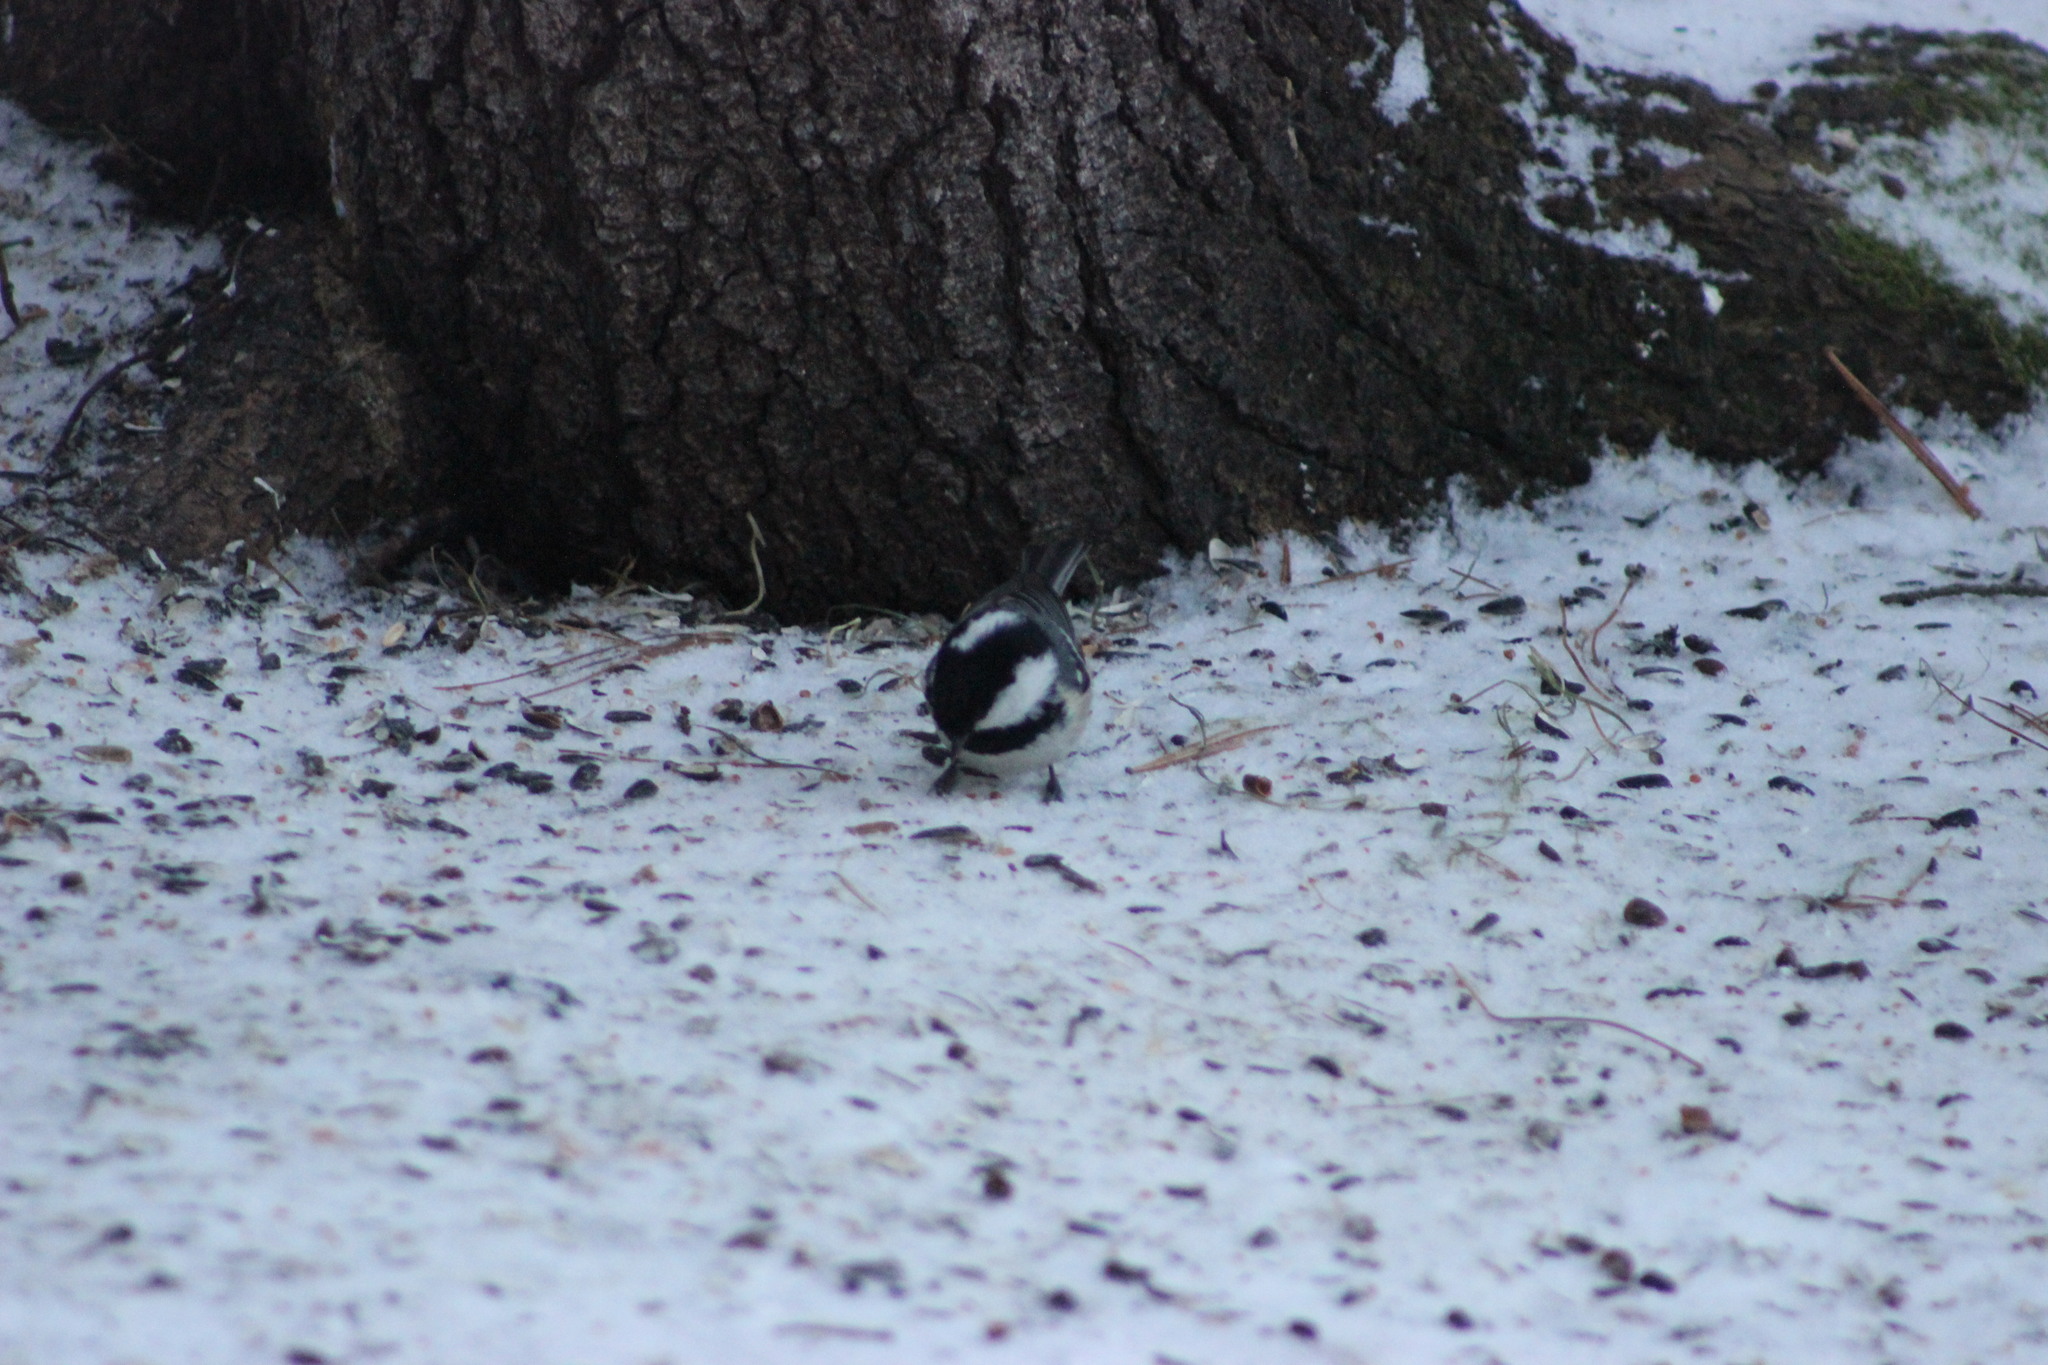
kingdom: Animalia
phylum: Chordata
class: Aves
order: Passeriformes
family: Paridae
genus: Periparus
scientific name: Periparus ater
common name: Coal tit
